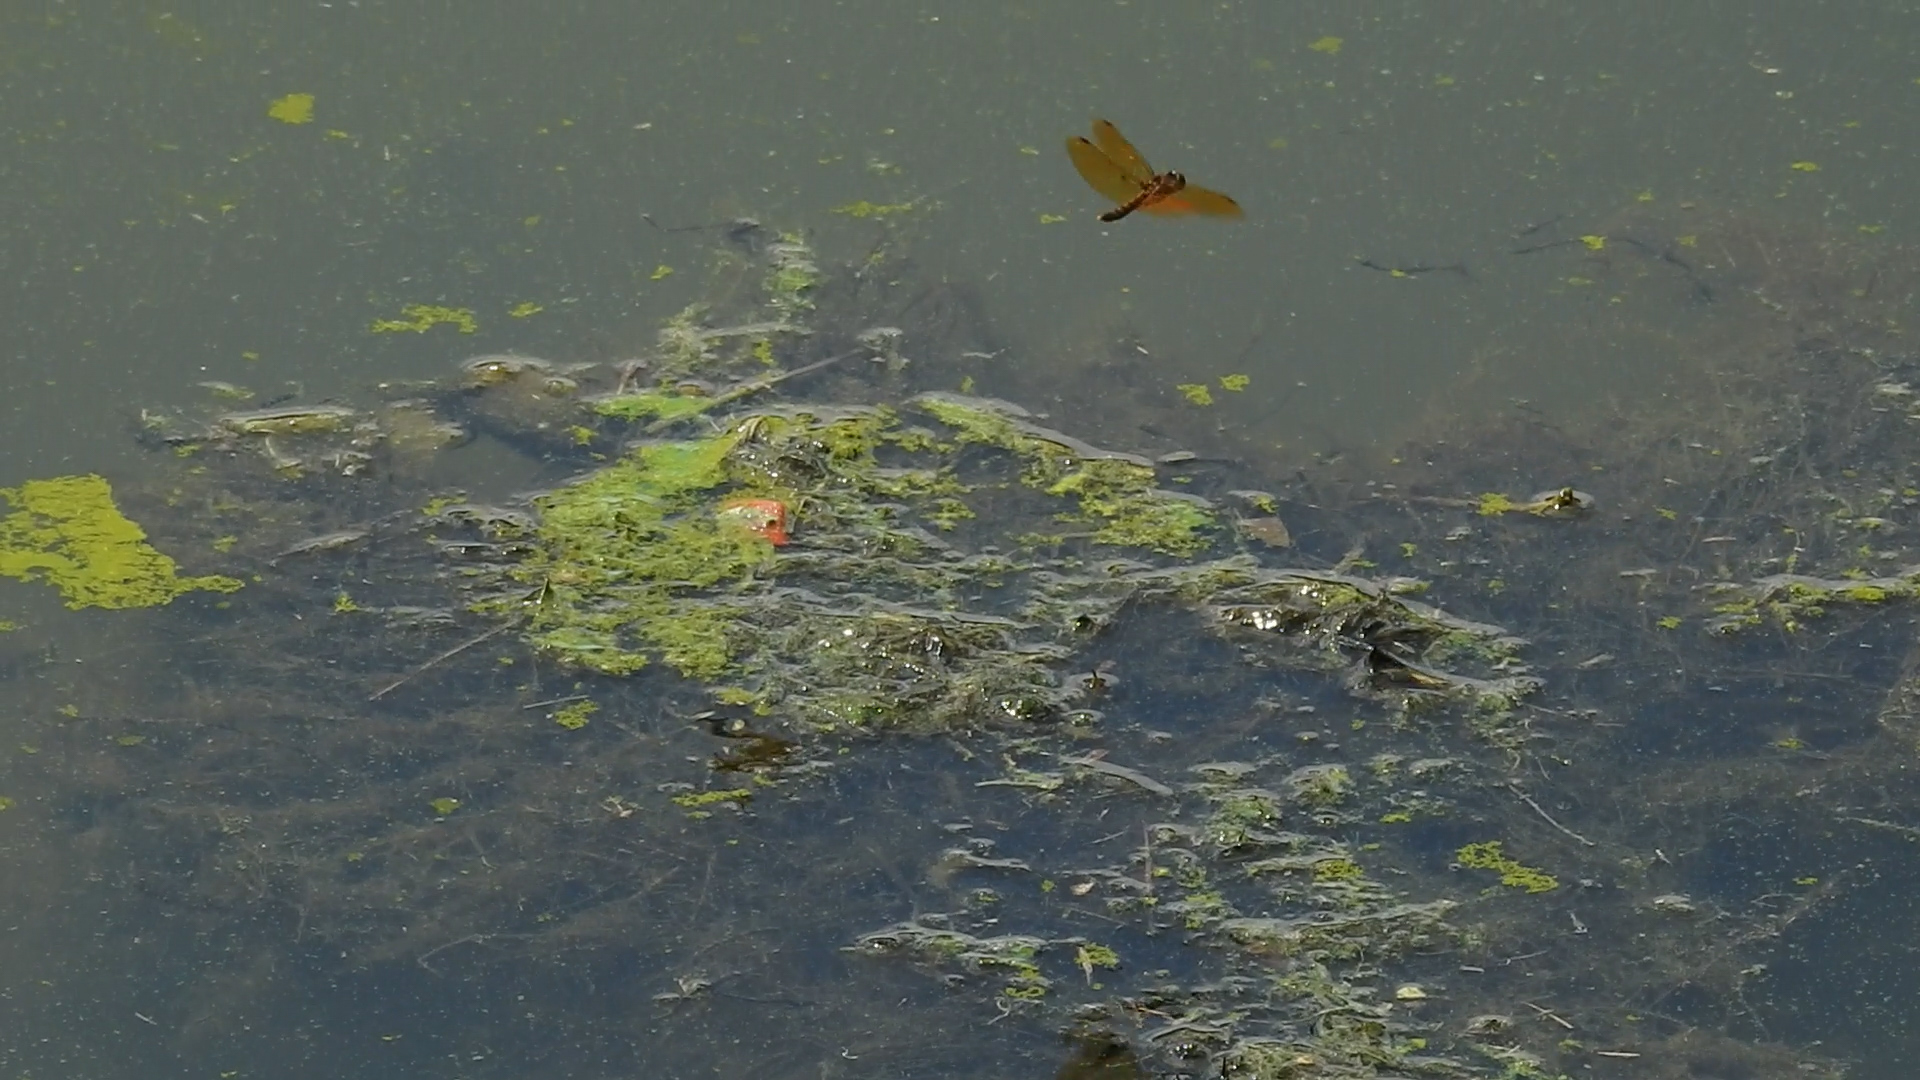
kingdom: Animalia
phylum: Arthropoda
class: Insecta
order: Odonata
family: Libellulidae
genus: Perithemis
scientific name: Perithemis tenera
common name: Eastern amberwing
